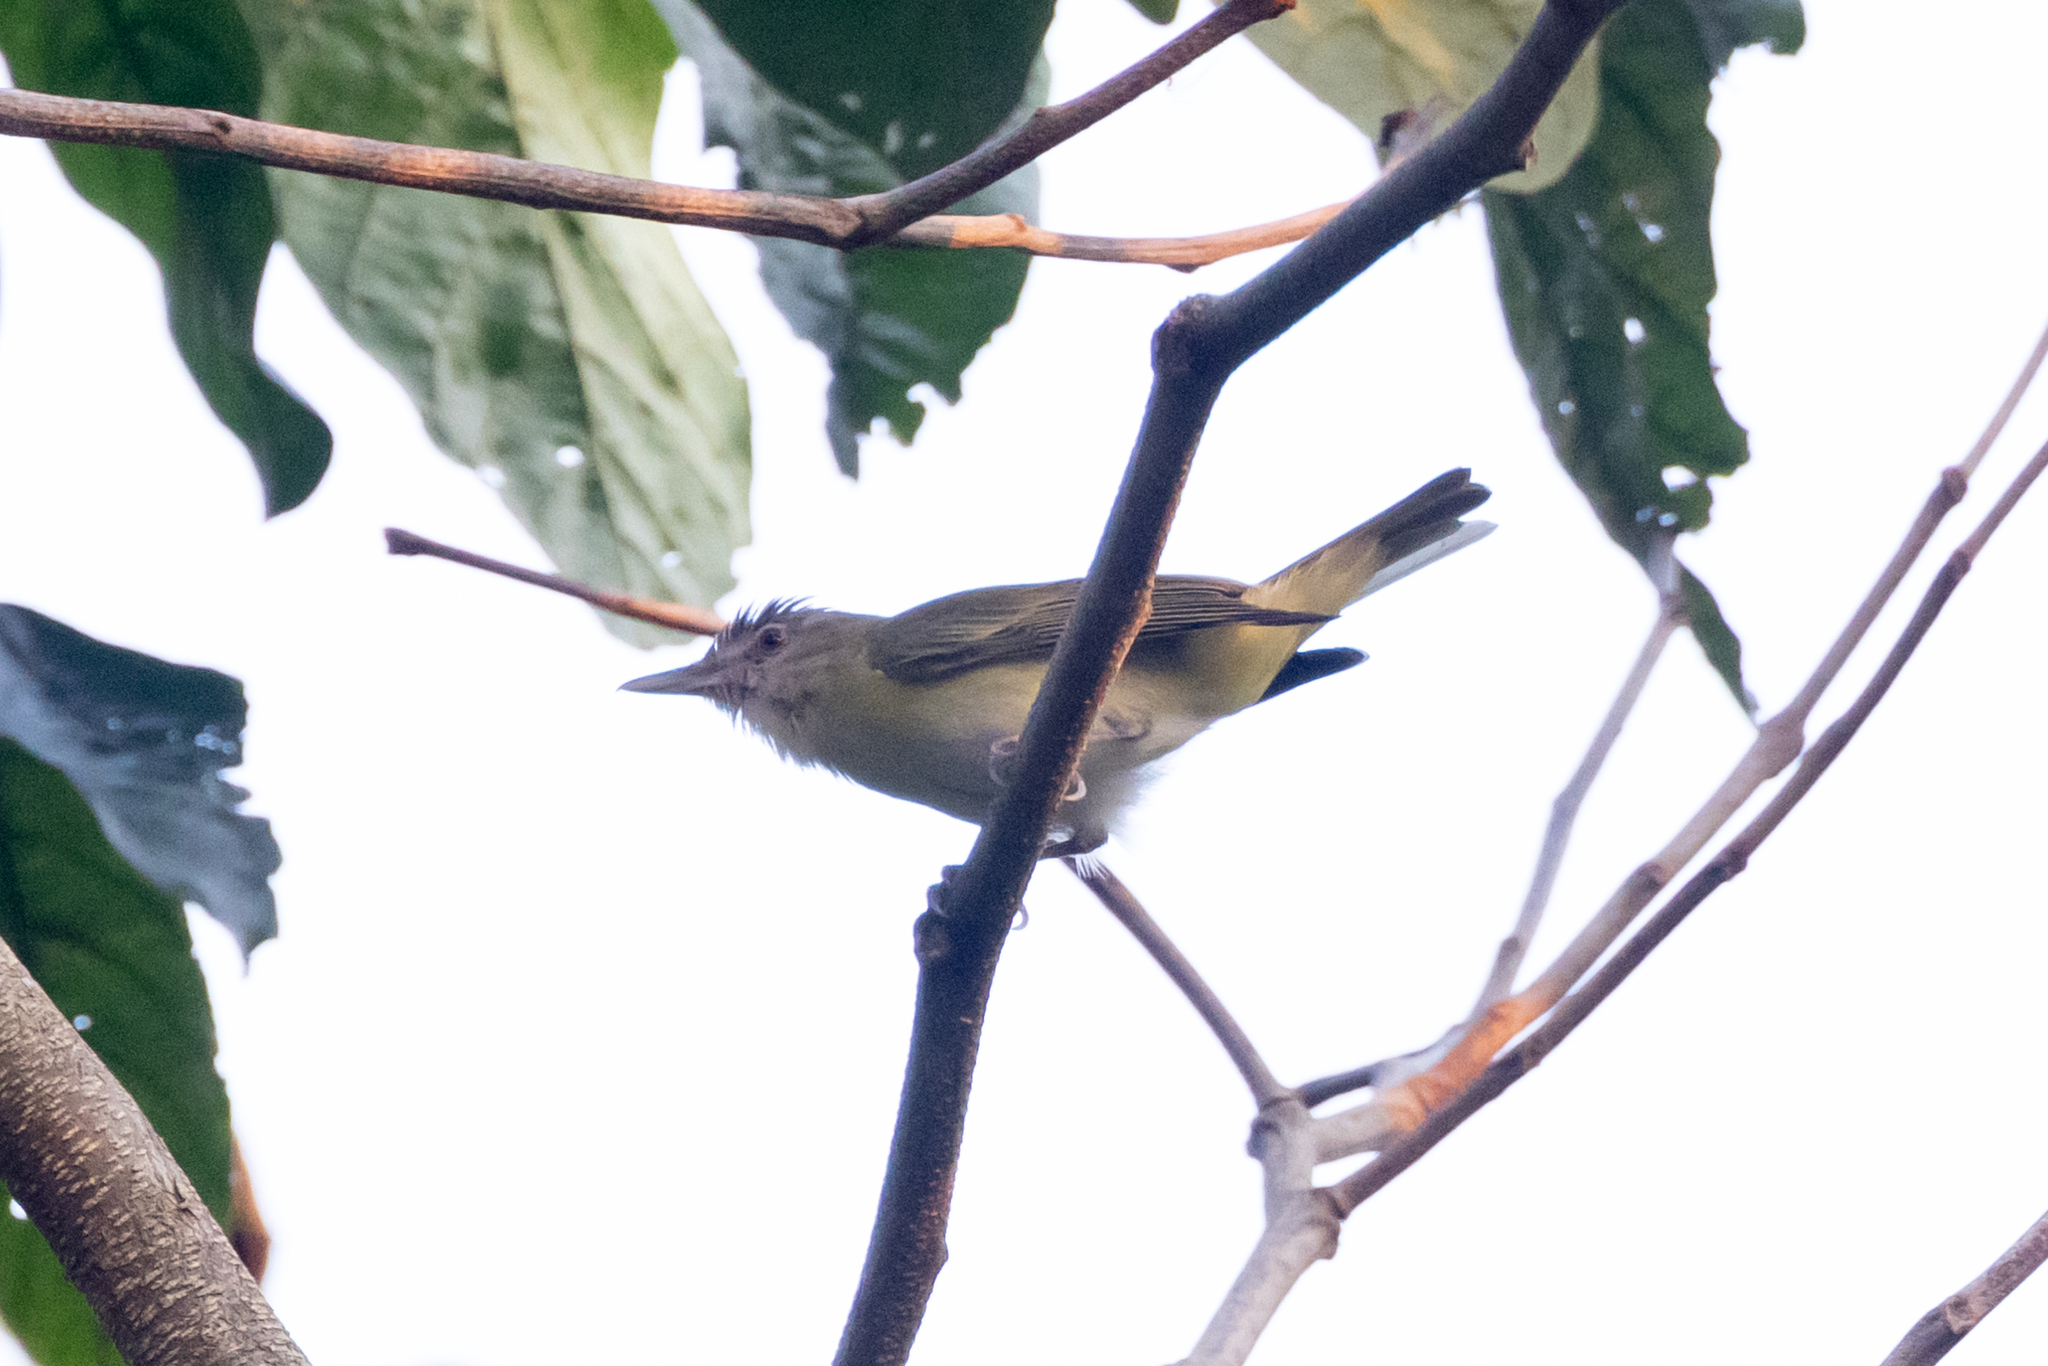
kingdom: Animalia
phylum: Chordata
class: Aves
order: Passeriformes
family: Vireonidae
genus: Vireo
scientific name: Vireo flavoviridis
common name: Yellow-green vireo
